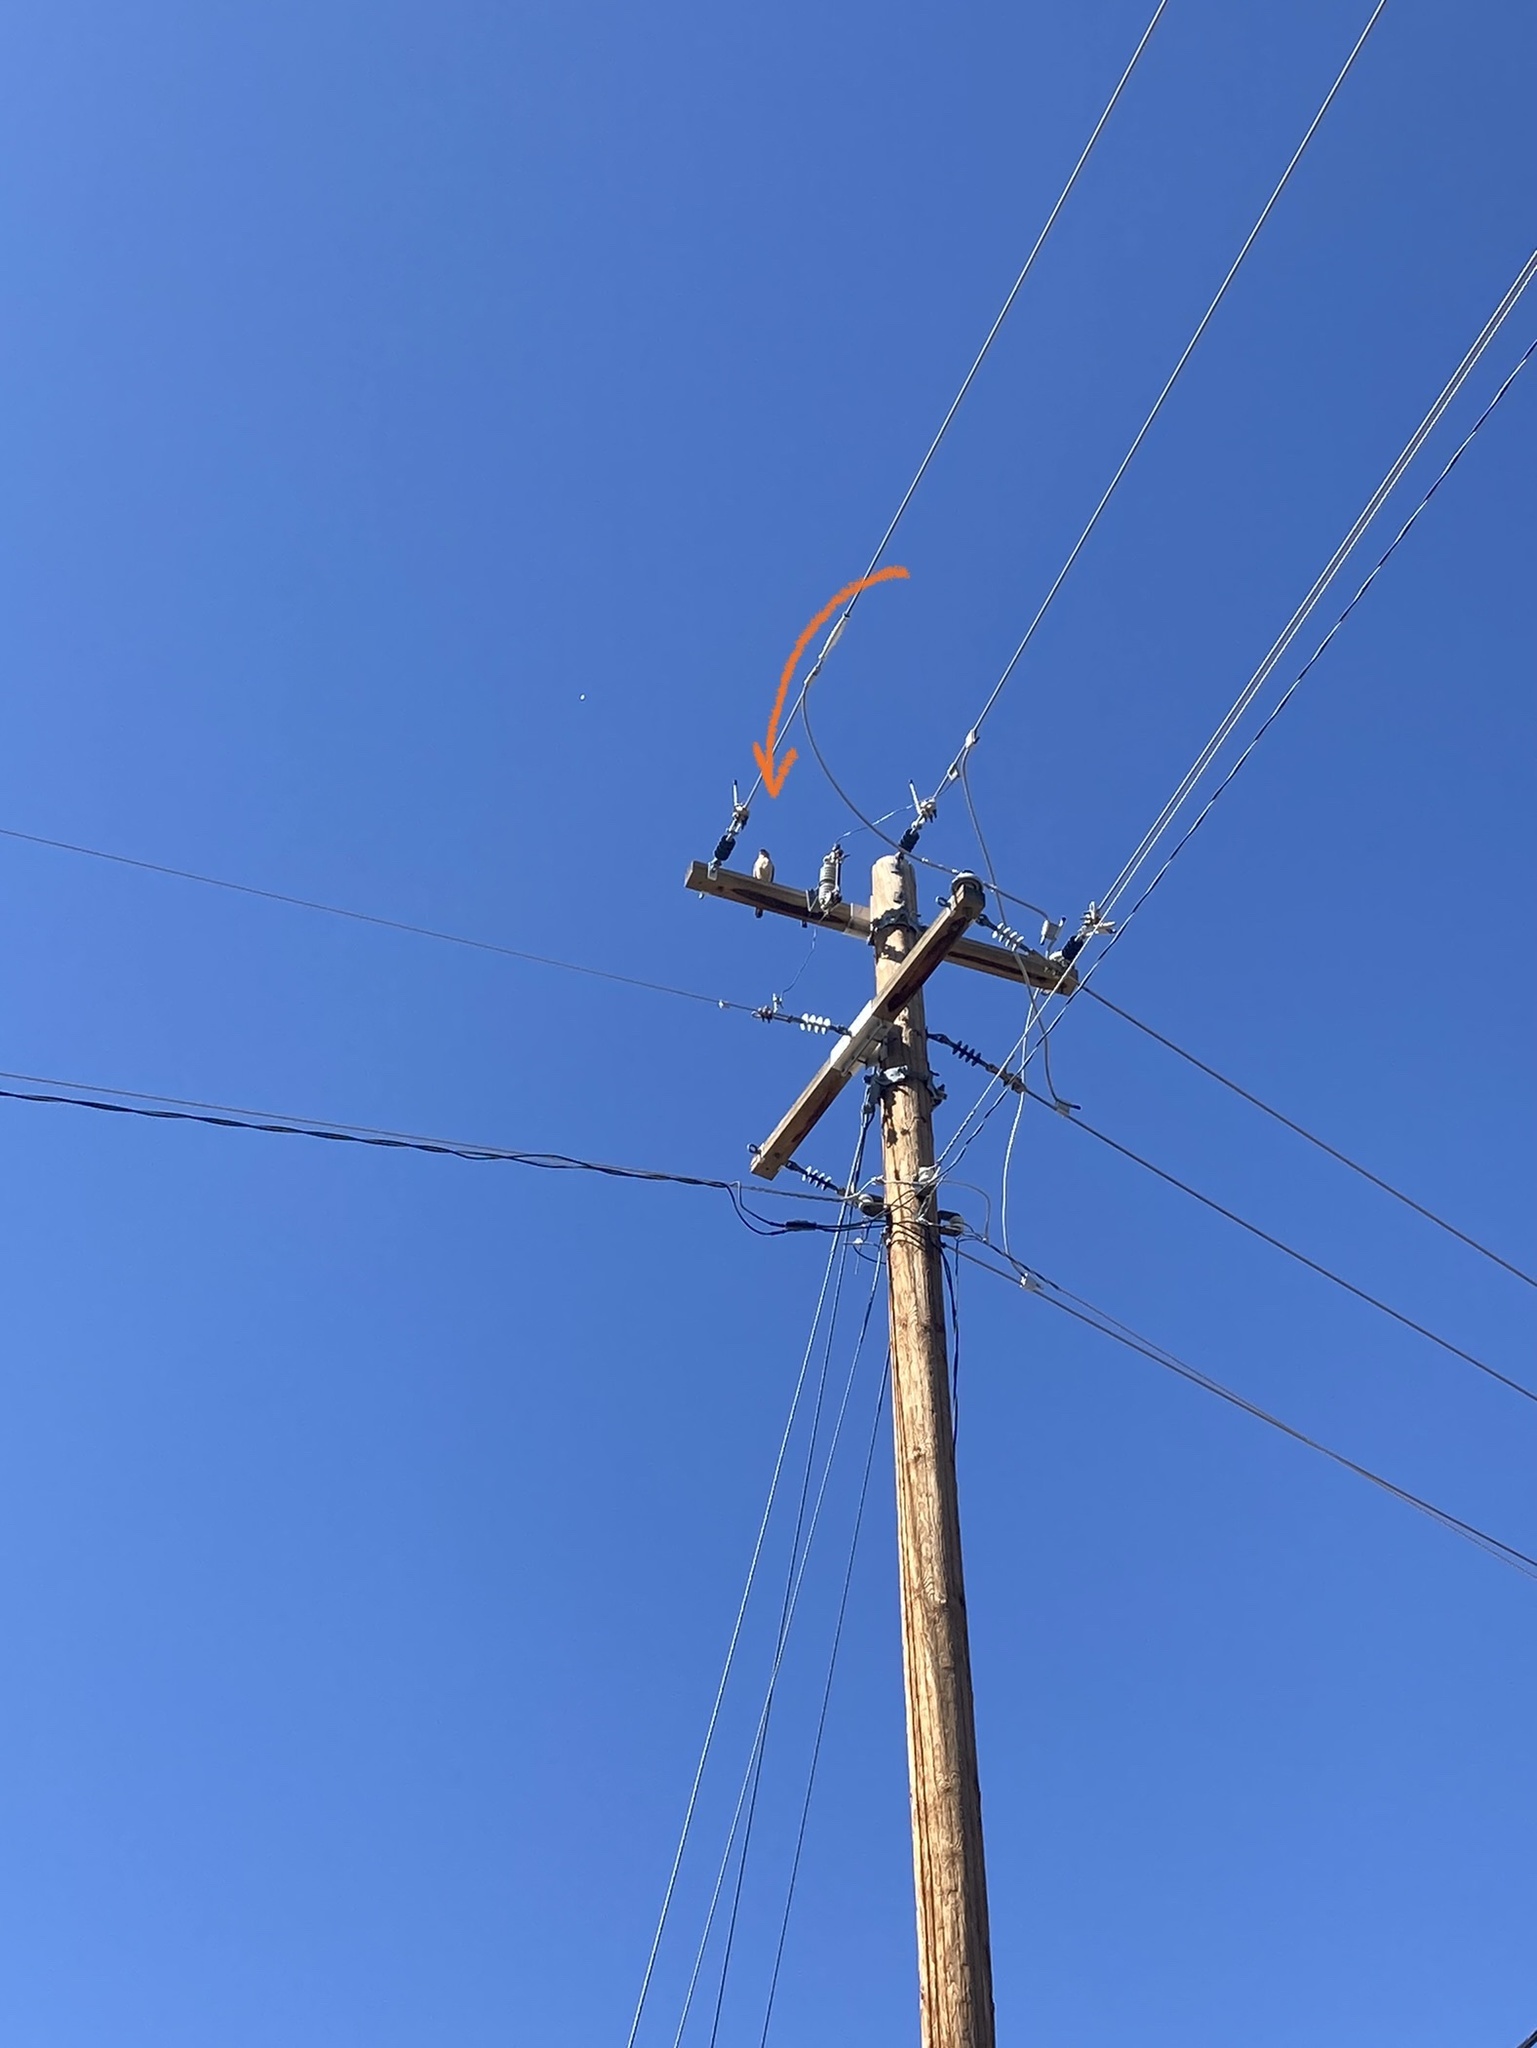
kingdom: Animalia
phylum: Chordata
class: Aves
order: Accipitriformes
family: Accipitridae
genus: Accipiter
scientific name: Accipiter cooperii
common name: Cooper's hawk
